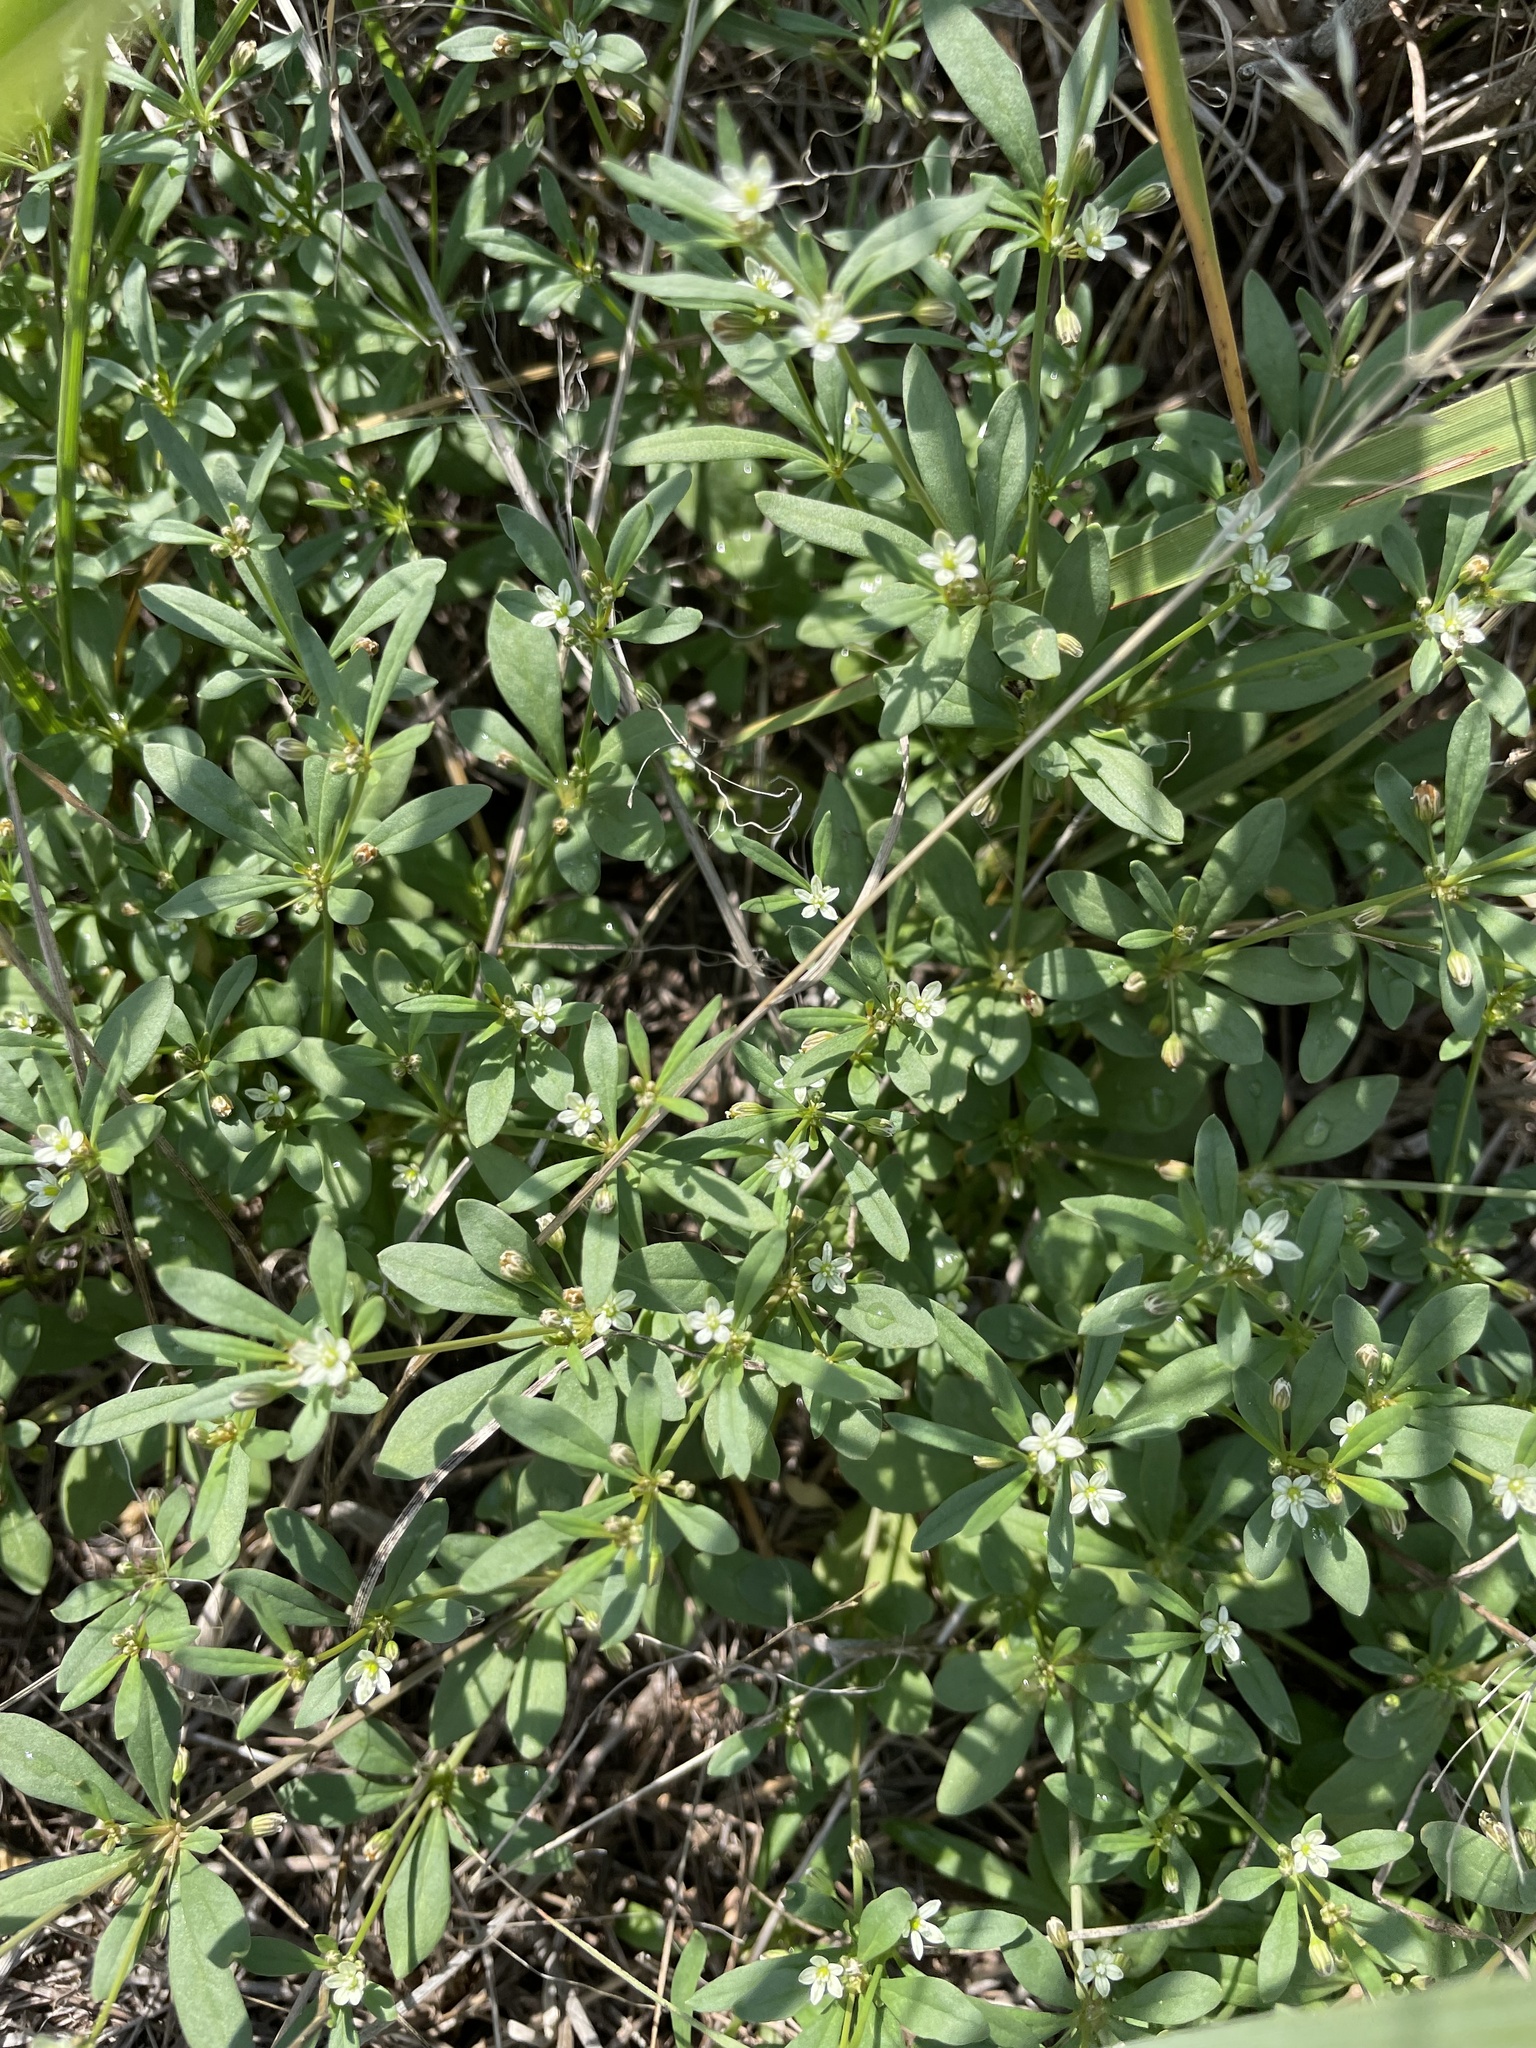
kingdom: Plantae
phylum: Tracheophyta
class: Magnoliopsida
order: Caryophyllales
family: Molluginaceae
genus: Mollugo
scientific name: Mollugo verticillata
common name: Green carpetweed
